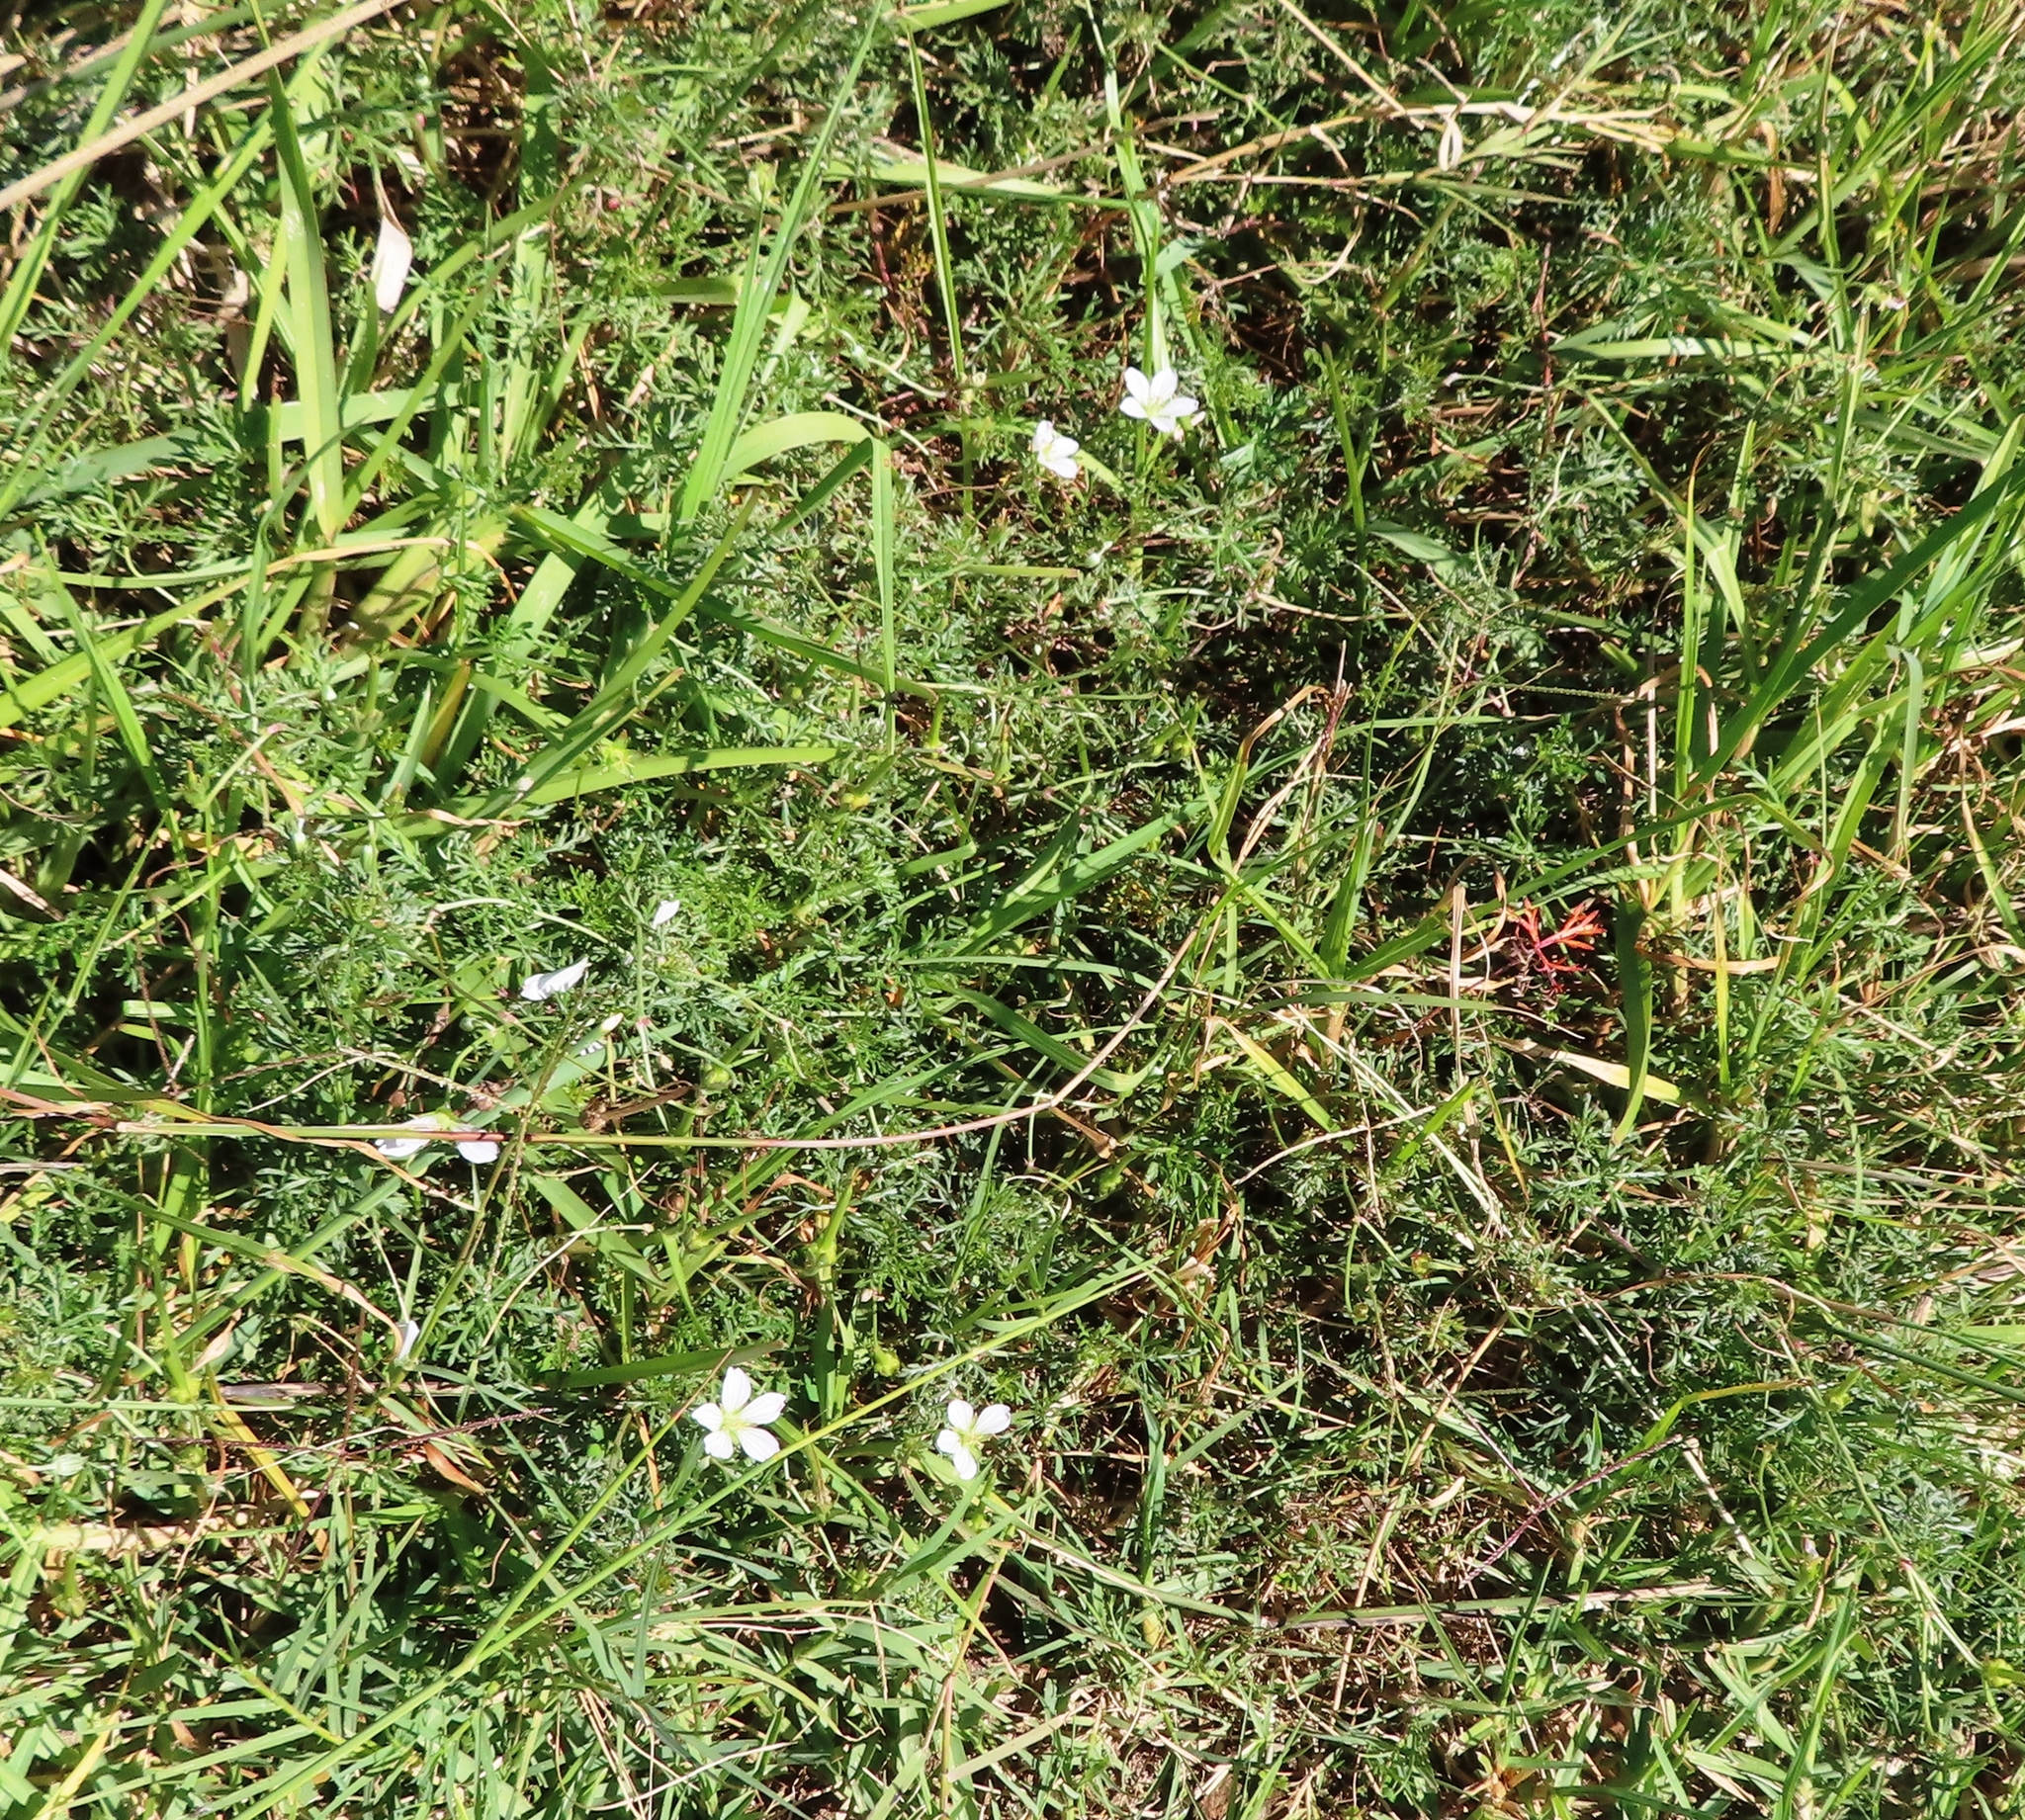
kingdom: Plantae
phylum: Tracheophyta
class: Magnoliopsida
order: Geraniales
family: Geraniaceae
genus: Geranium
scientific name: Geranium incanum
